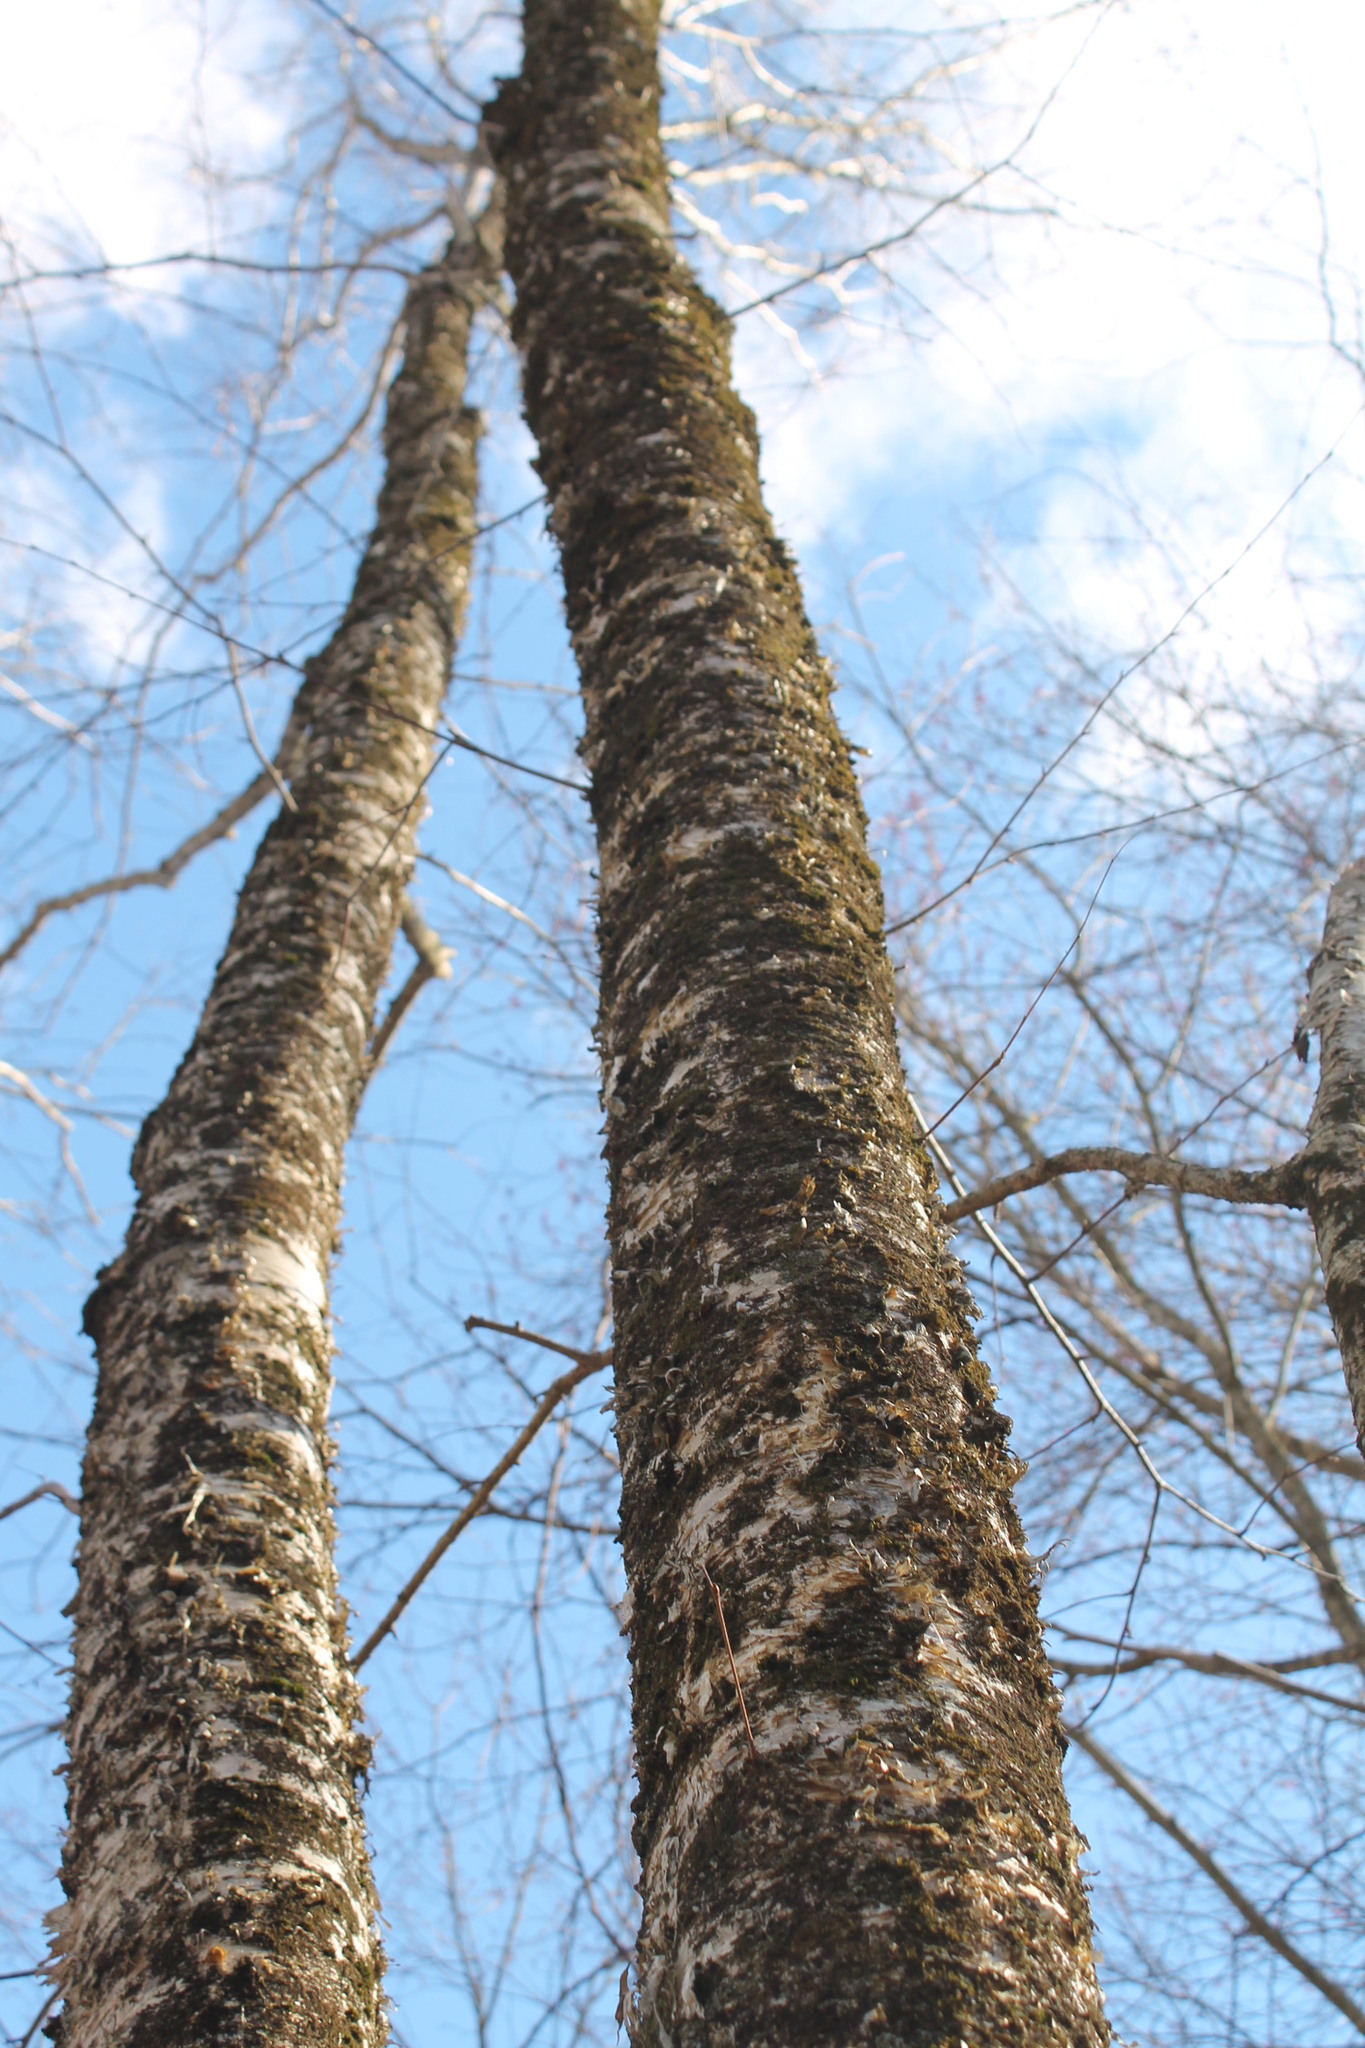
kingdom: Plantae
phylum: Tracheophyta
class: Magnoliopsida
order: Fagales
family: Betulaceae
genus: Betula
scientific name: Betula alleghaniensis
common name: Yellow birch
